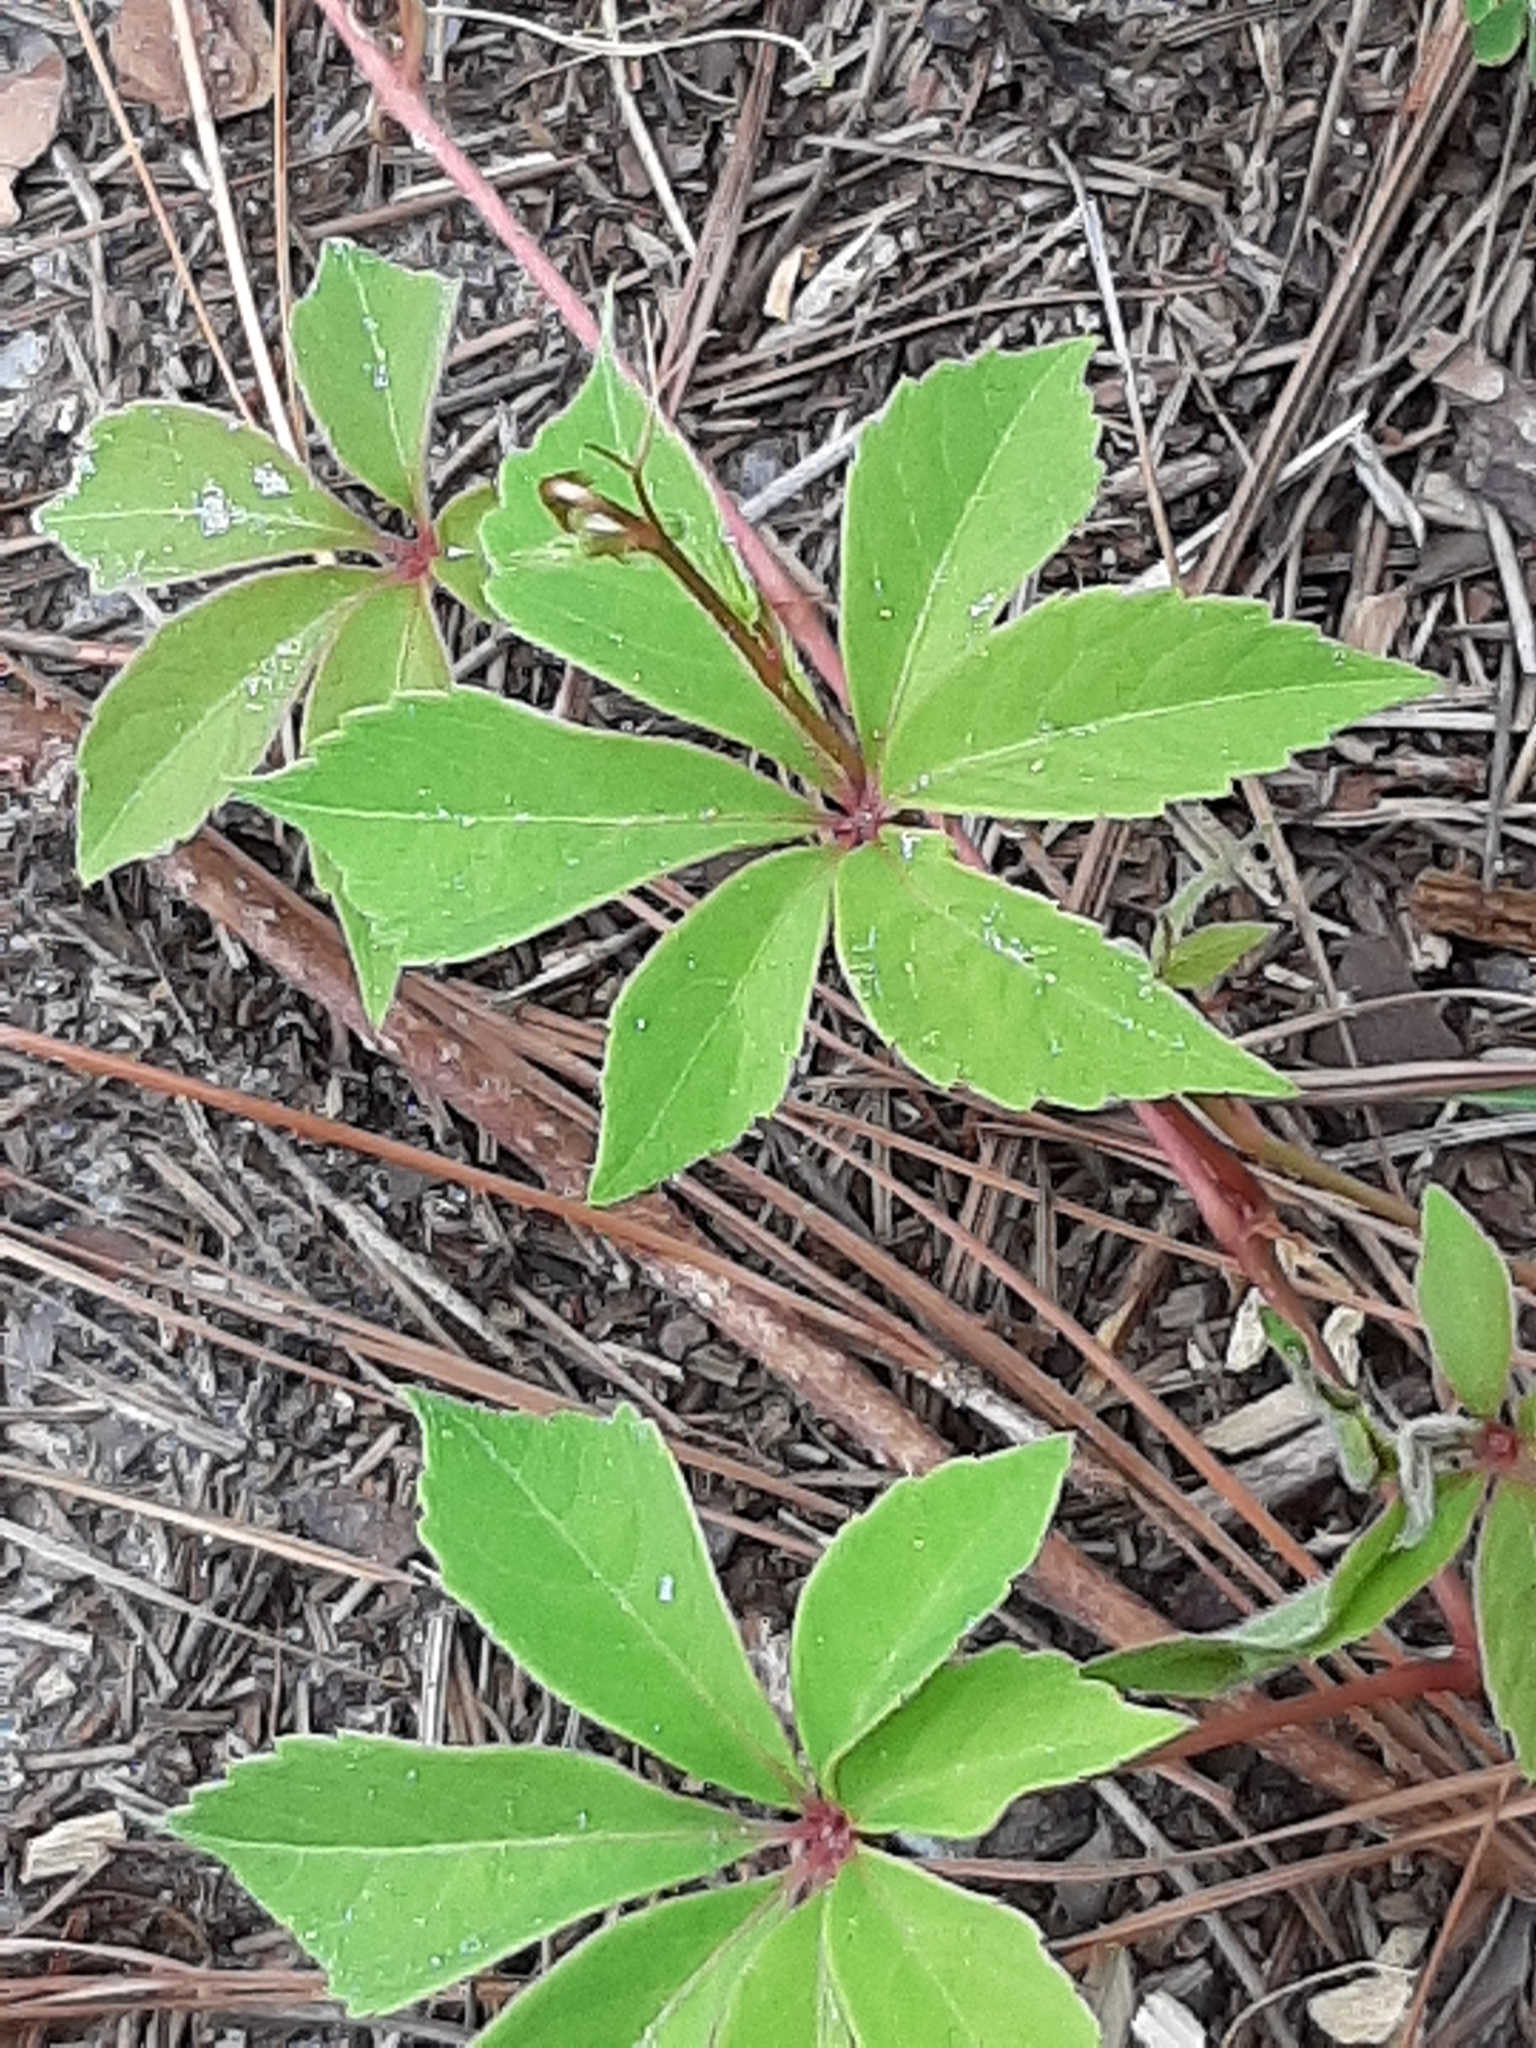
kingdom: Plantae
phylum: Tracheophyta
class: Magnoliopsida
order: Vitales
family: Vitaceae
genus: Parthenocissus
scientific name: Parthenocissus quinquefolia
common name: Virginia-creeper
